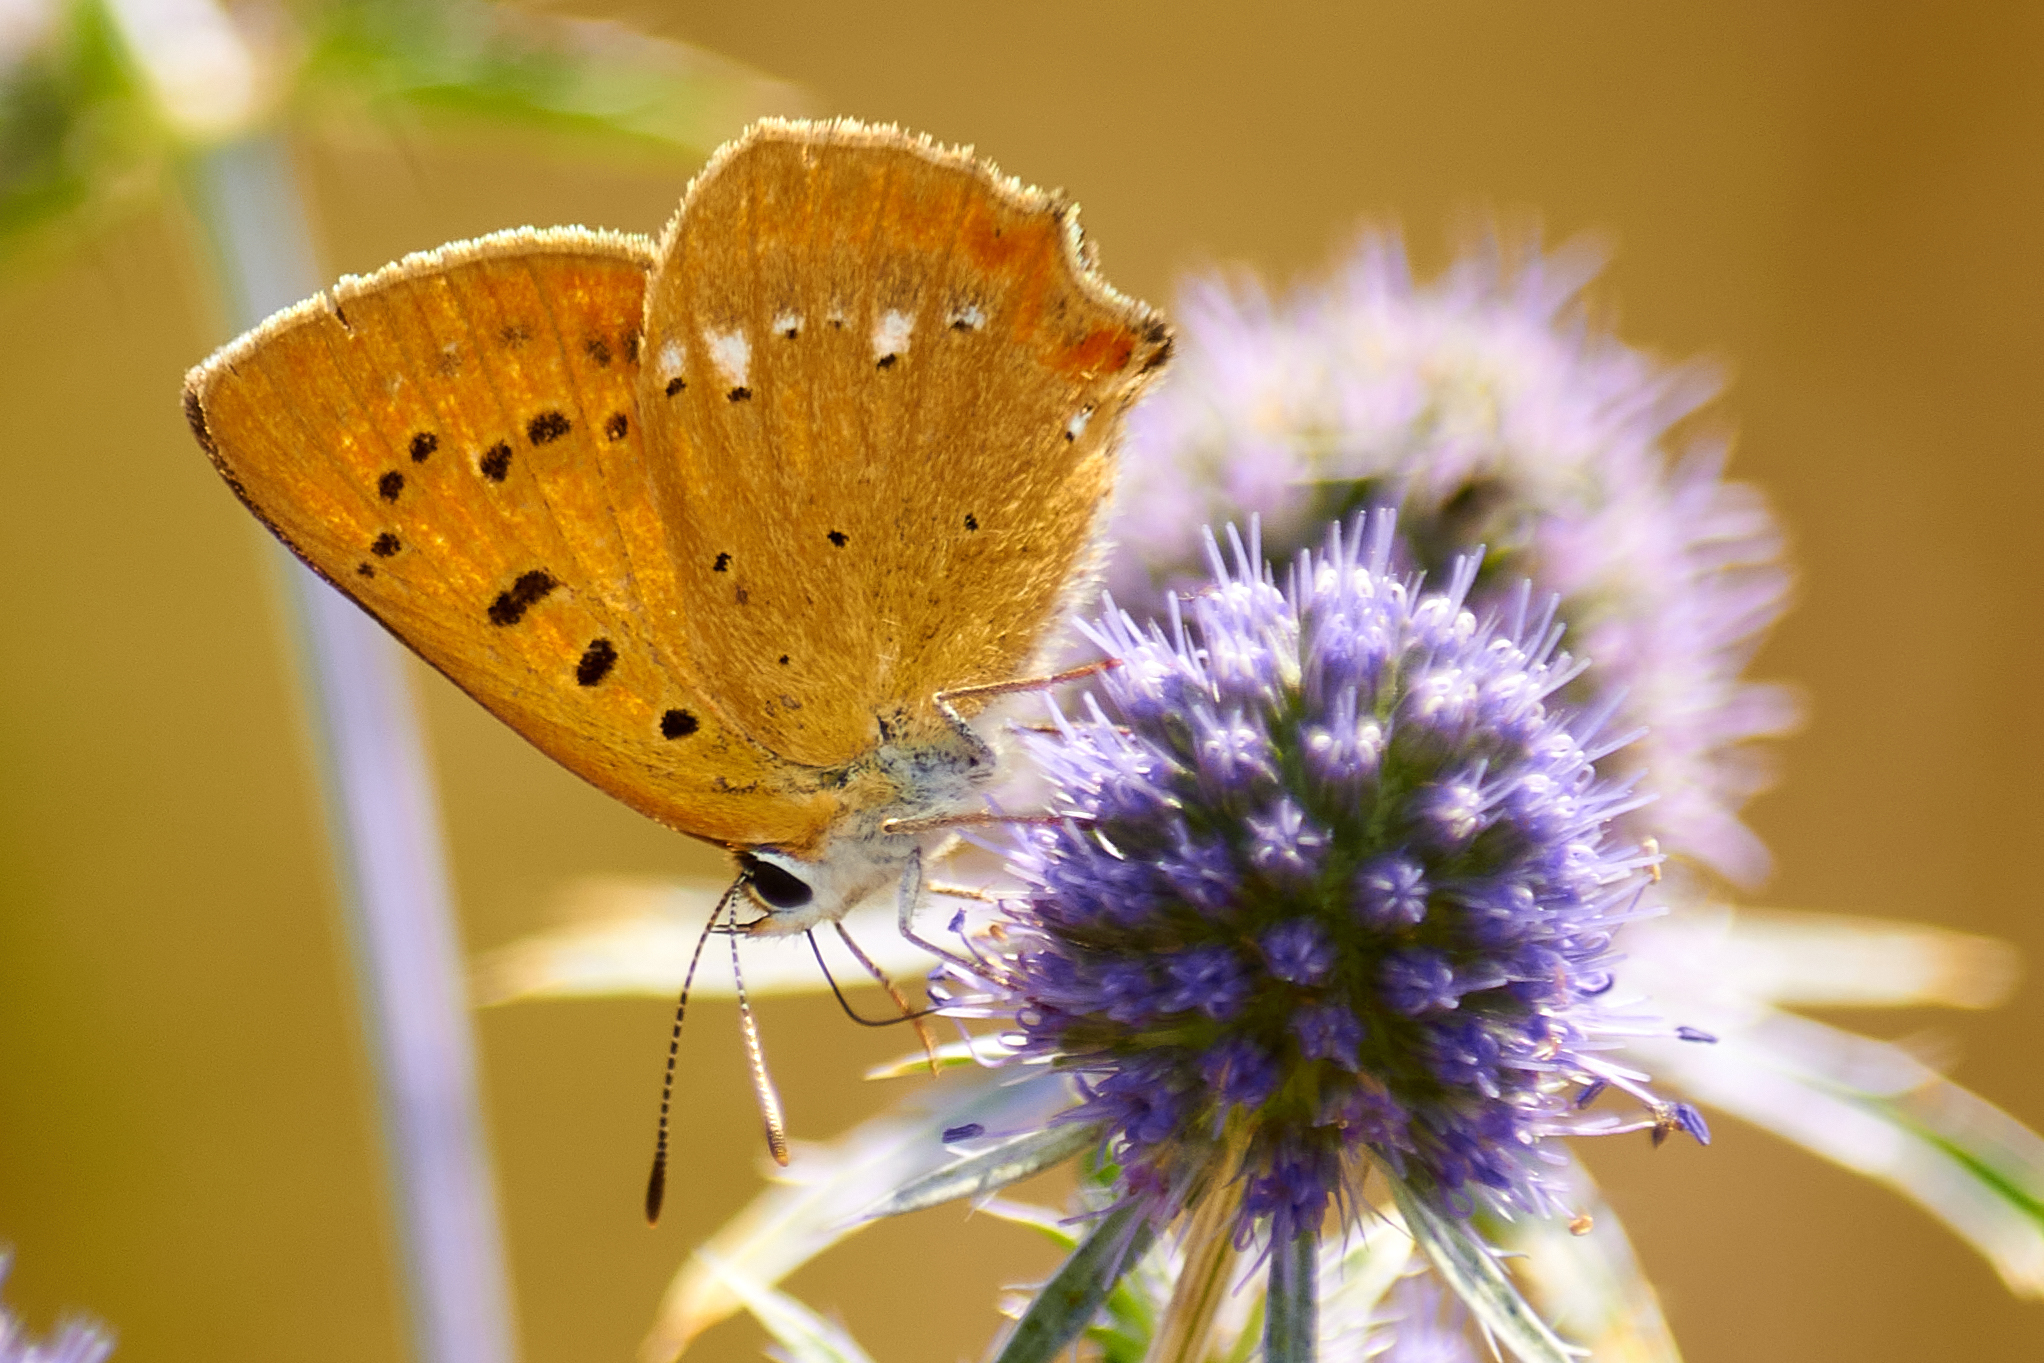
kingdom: Animalia
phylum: Arthropoda
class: Insecta
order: Lepidoptera
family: Lycaenidae
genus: Lycaena
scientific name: Lycaena virgaureae
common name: Scarce copper
